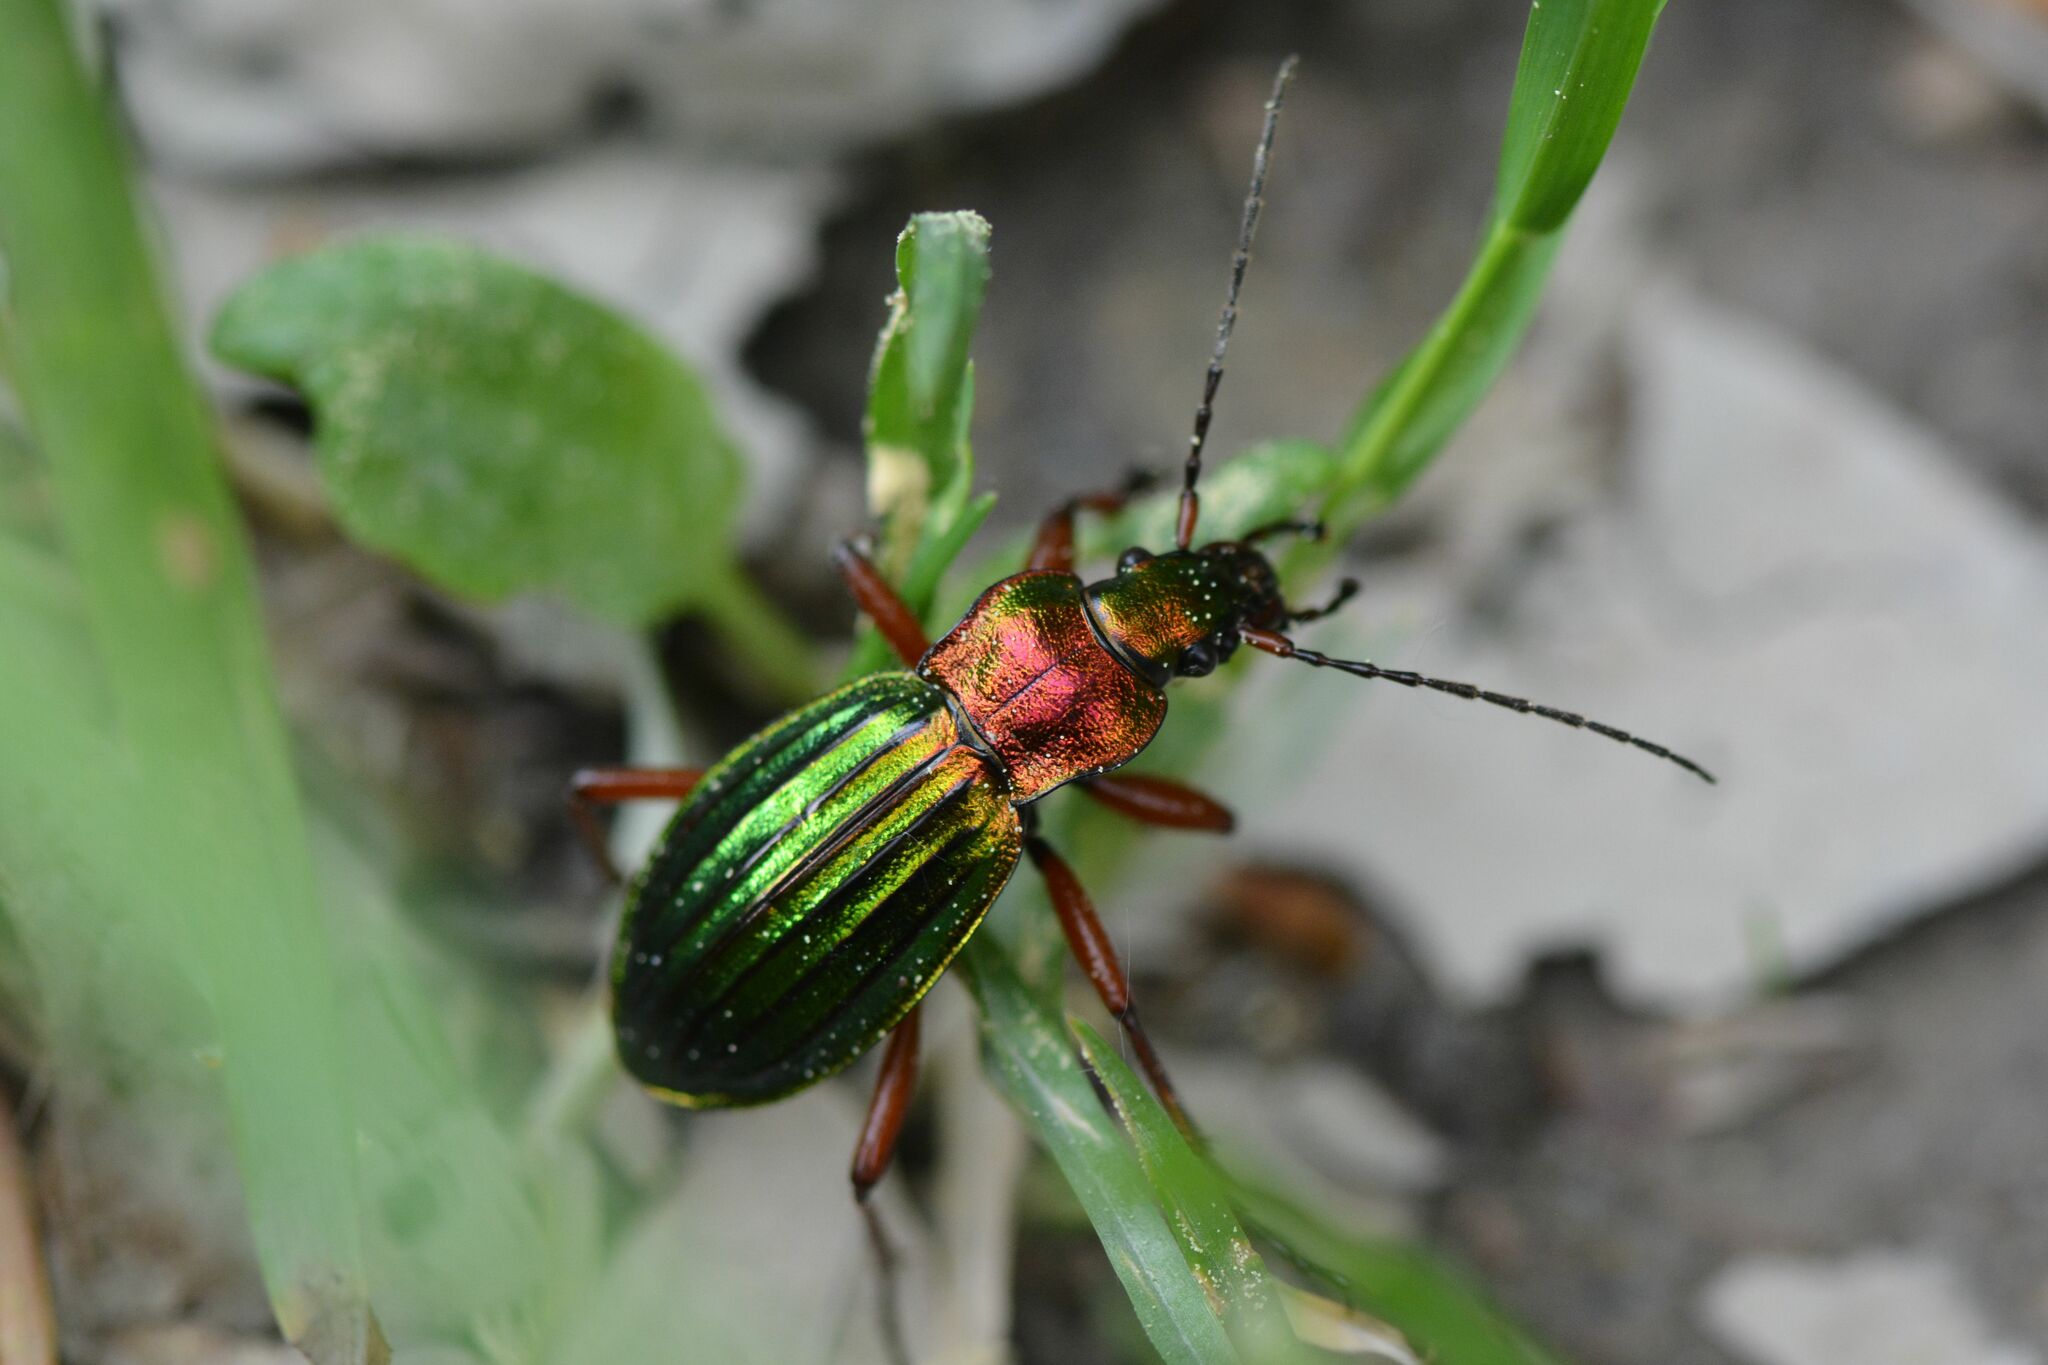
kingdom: Animalia
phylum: Arthropoda
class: Insecta
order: Coleoptera
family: Carabidae
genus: Carabus
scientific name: Carabus auronitens
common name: Carabus auronitens
